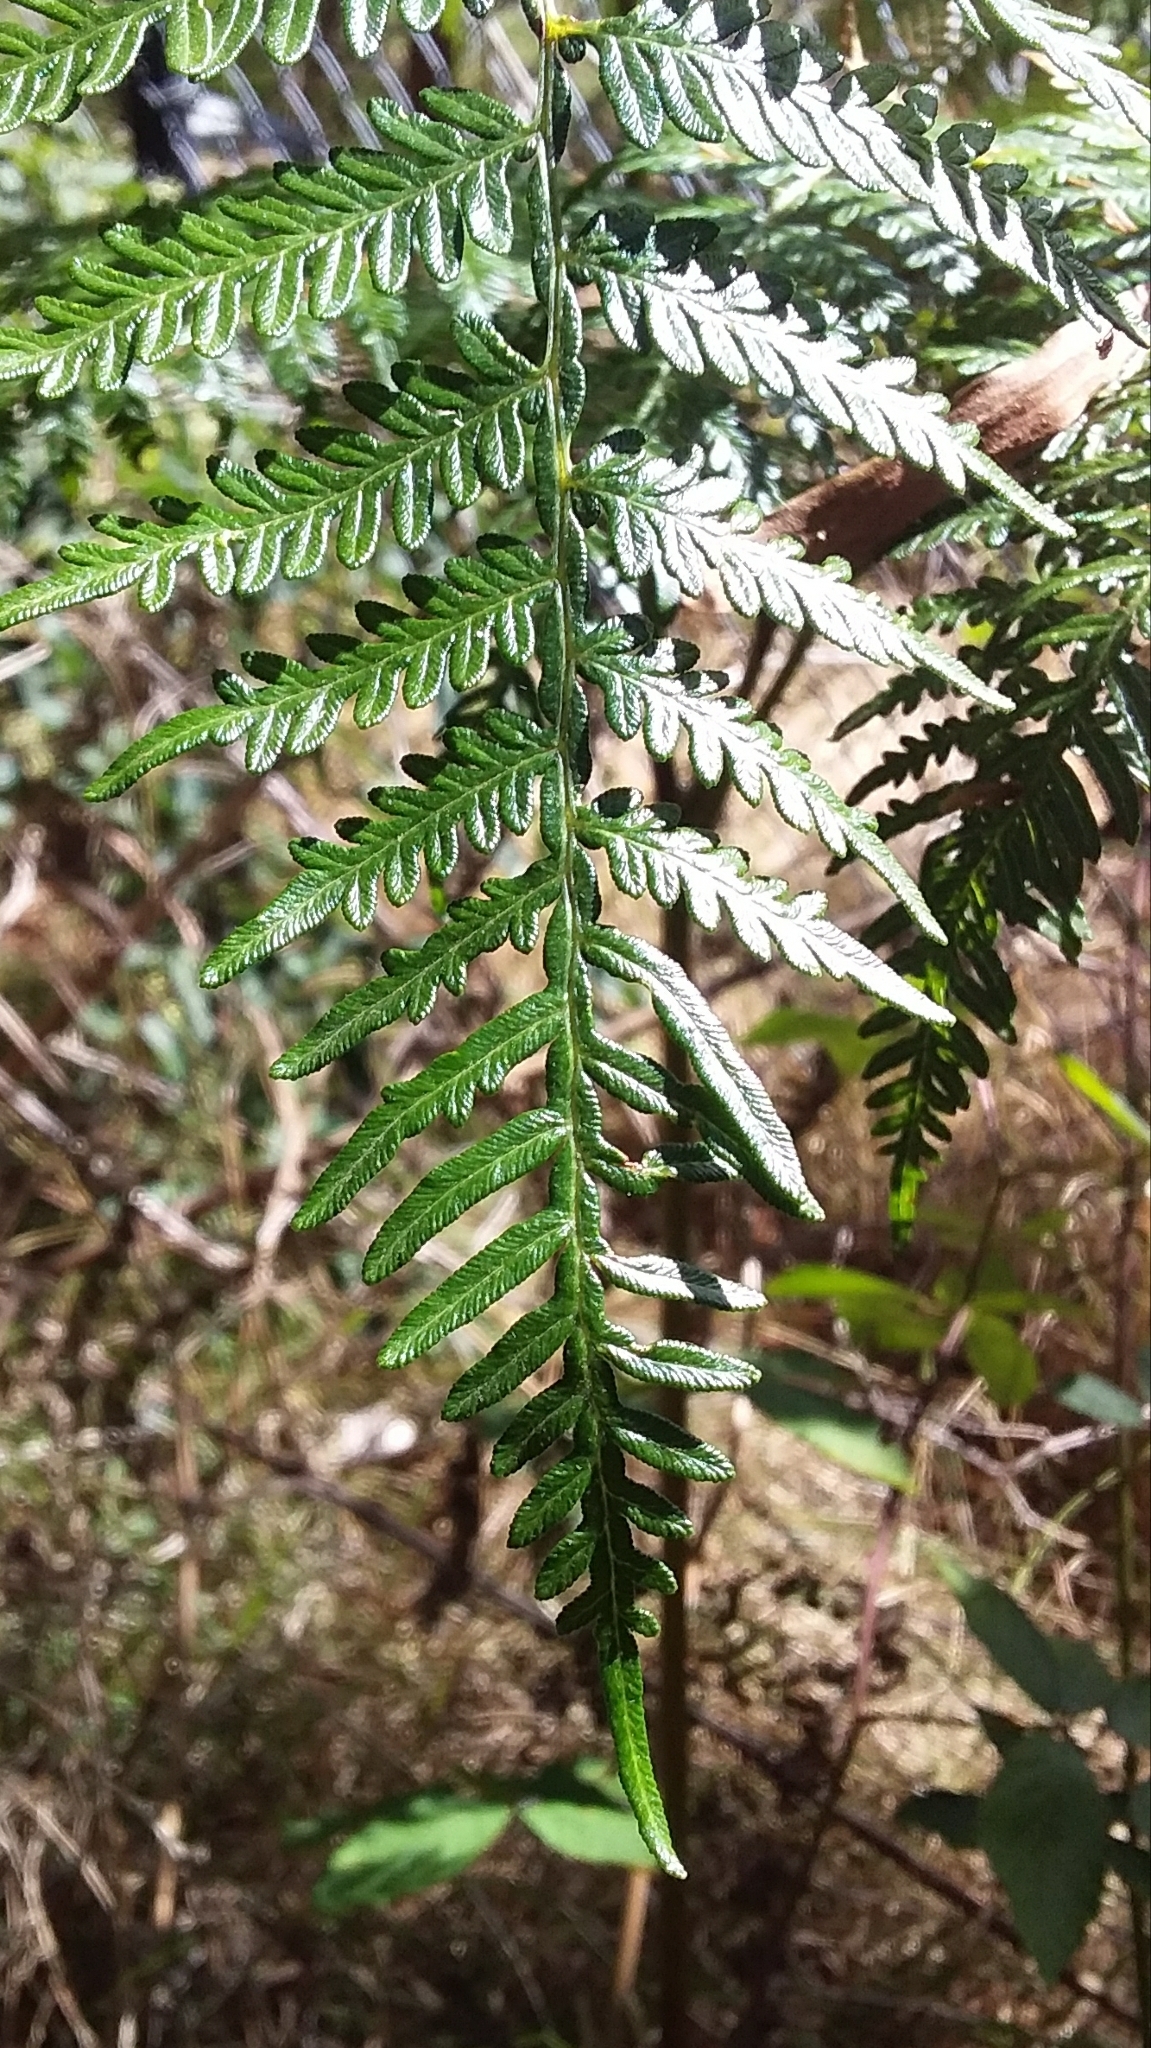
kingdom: Plantae
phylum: Tracheophyta
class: Polypodiopsida
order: Polypodiales
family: Dennstaedtiaceae
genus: Pteridium
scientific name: Pteridium esculentum
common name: Bracken fern
